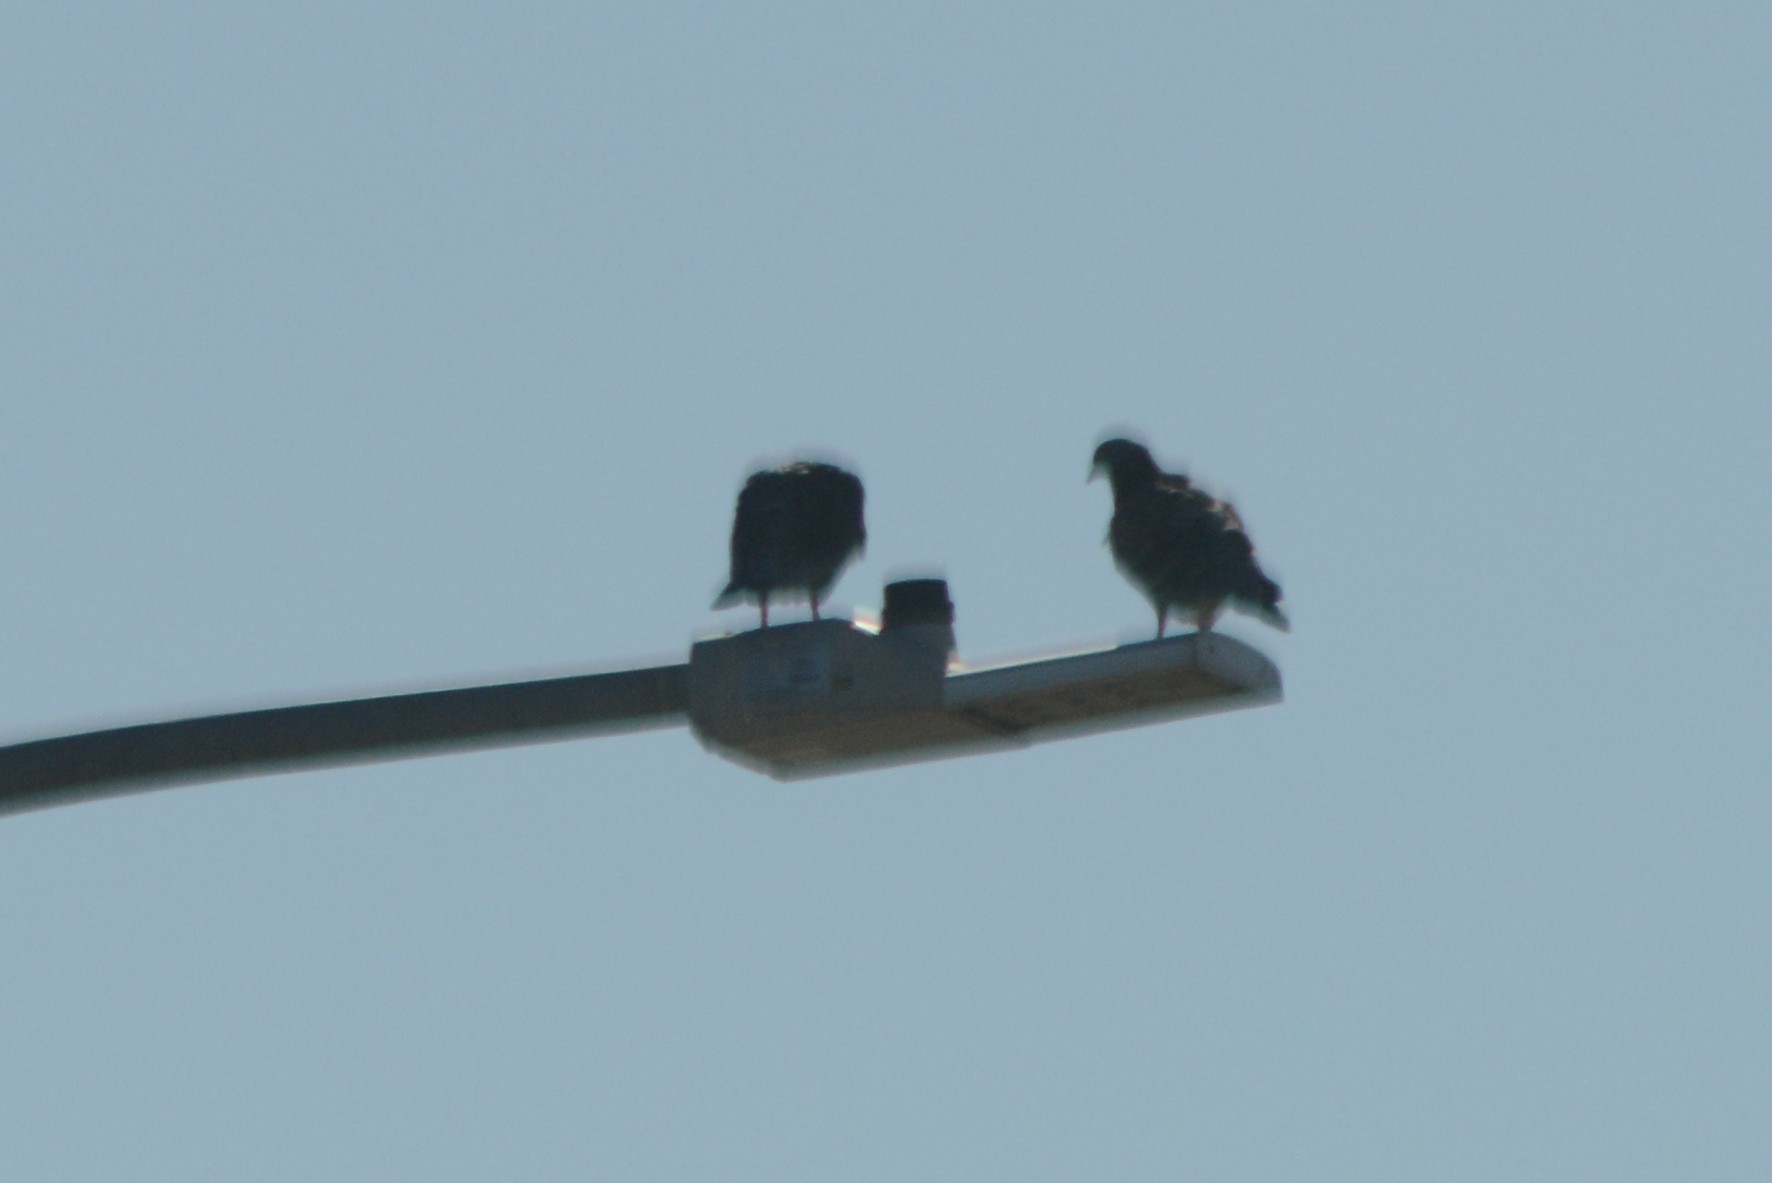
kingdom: Animalia
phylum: Chordata
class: Aves
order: Columbiformes
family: Columbidae
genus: Columba
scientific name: Columba livia
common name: Rock pigeon
